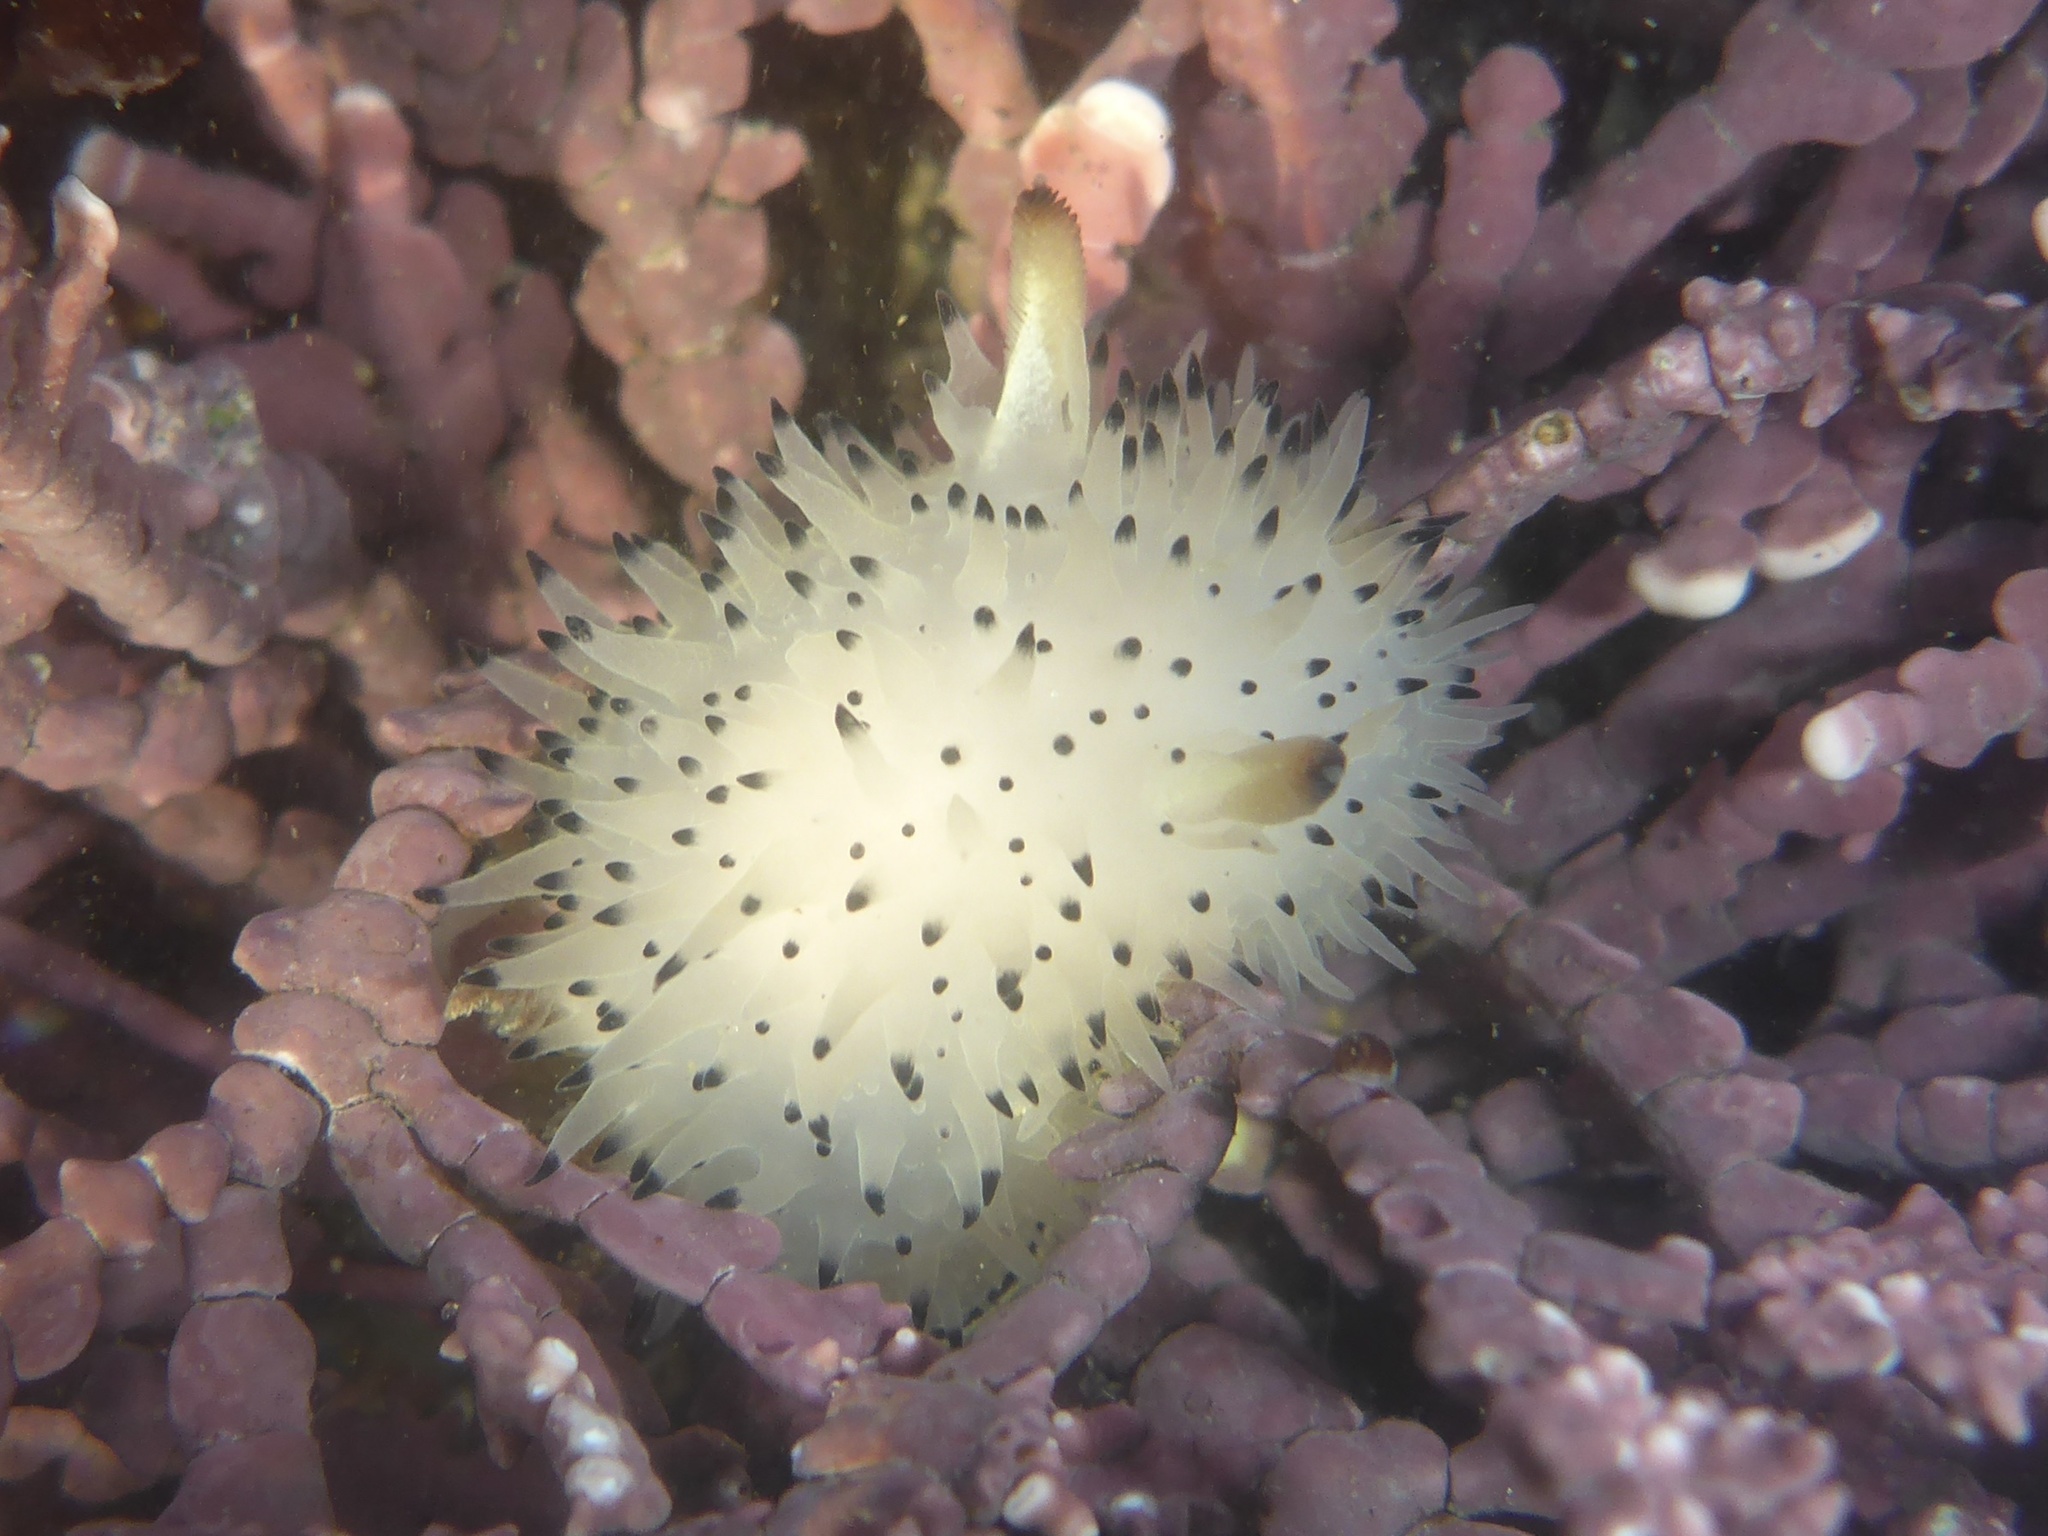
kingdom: Animalia
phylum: Mollusca
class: Gastropoda
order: Nudibranchia
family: Onchidorididae
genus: Acanthodoris
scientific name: Acanthodoris rhodoceras
